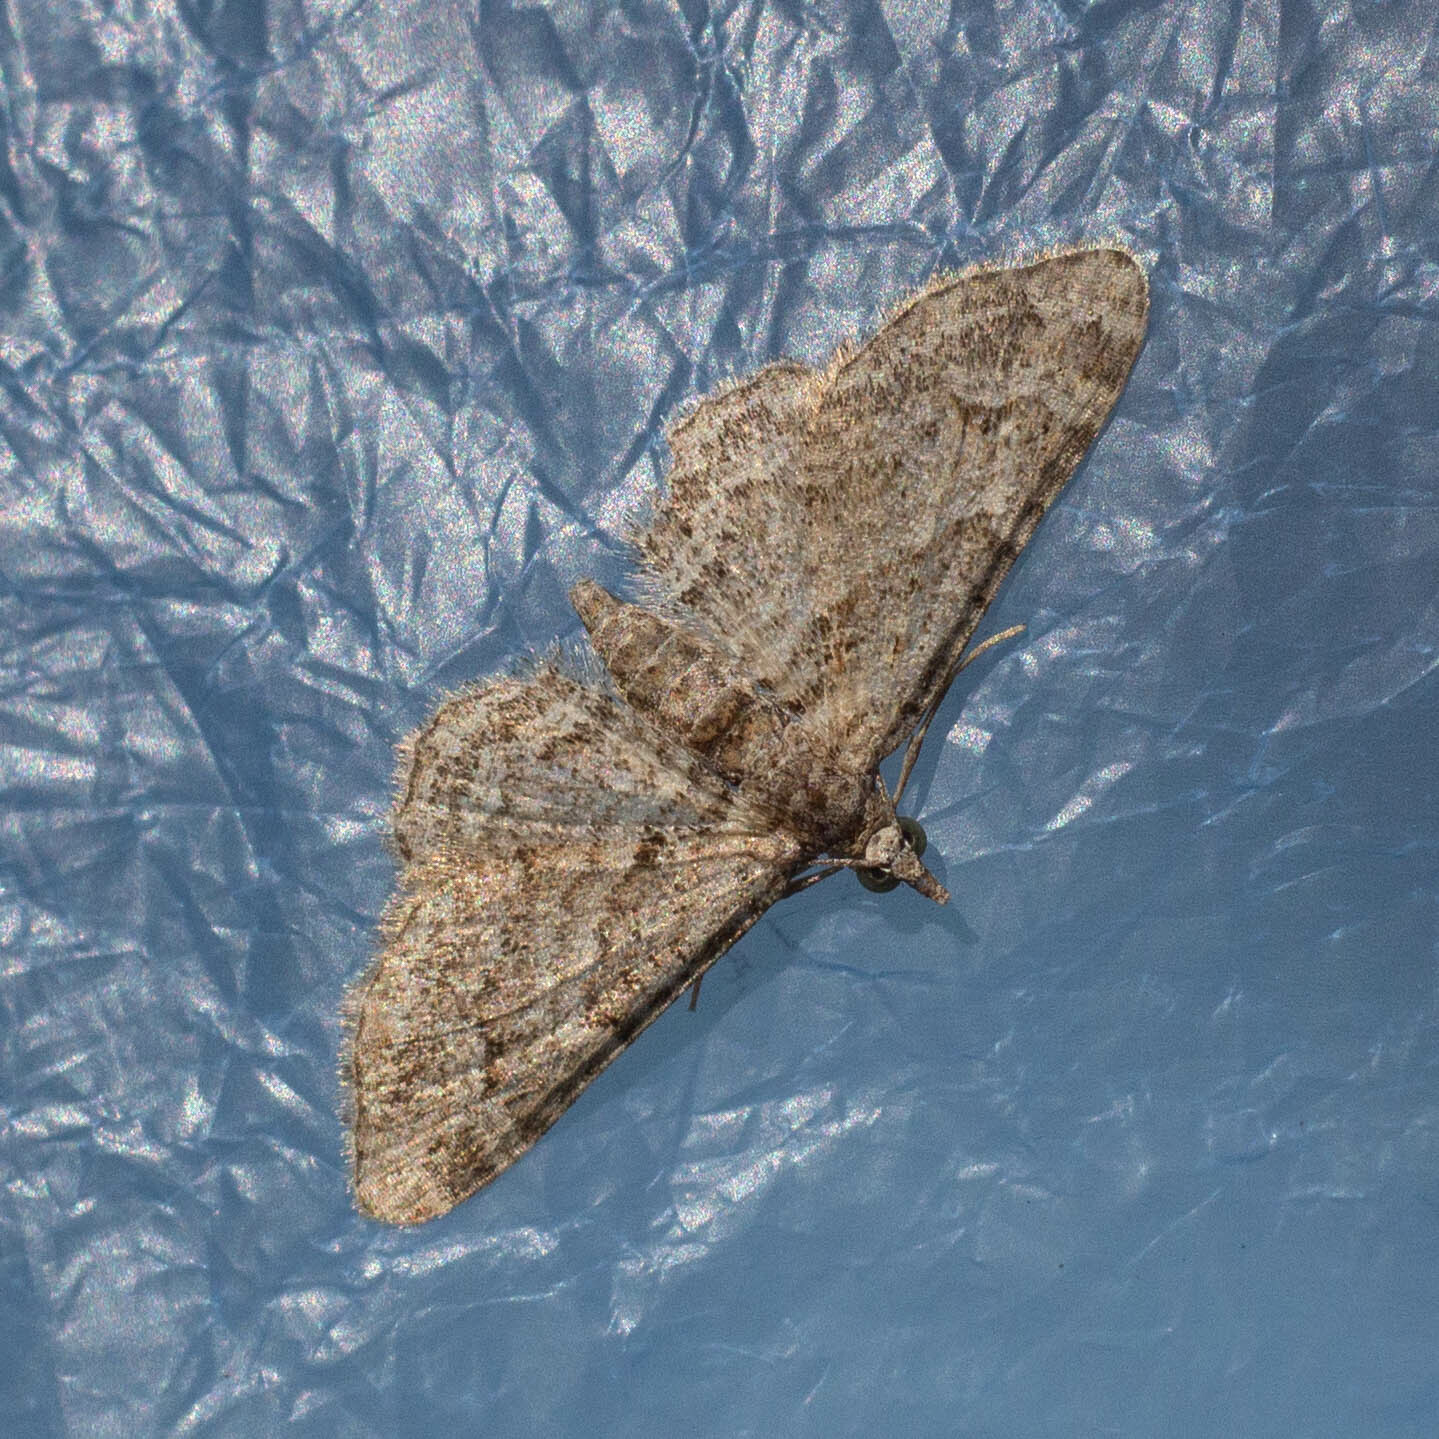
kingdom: Animalia
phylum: Arthropoda
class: Insecta
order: Lepidoptera
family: Geometridae
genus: Gymnoscelis
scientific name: Gymnoscelis rufifasciata
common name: Double-striped pug
